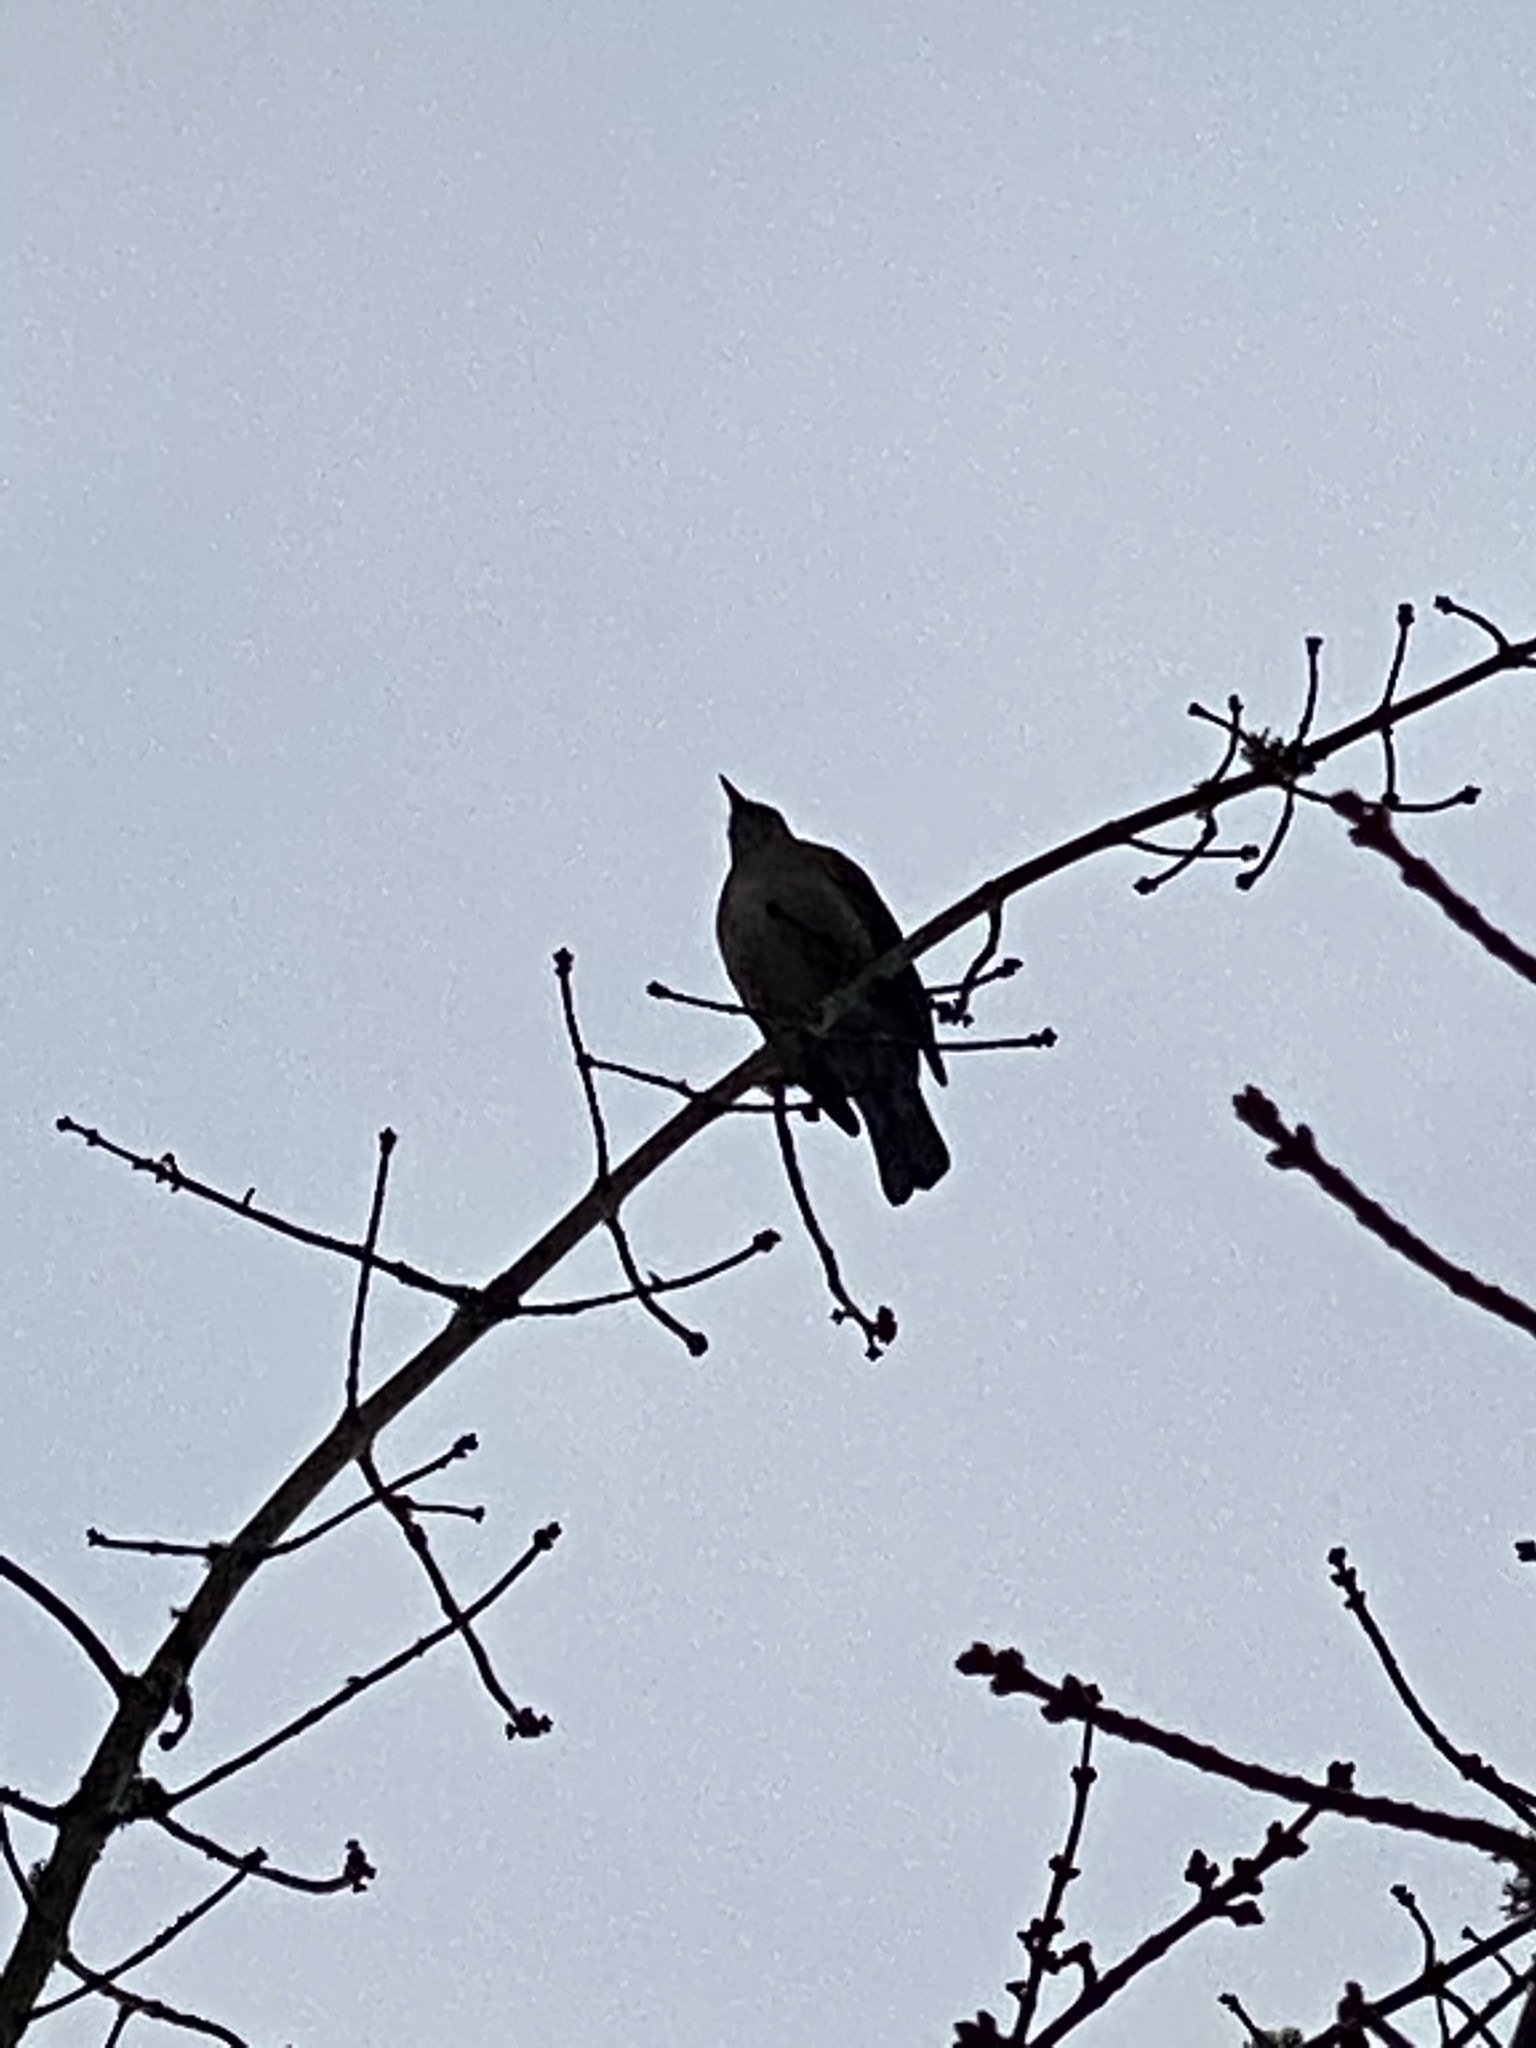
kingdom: Animalia
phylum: Chordata
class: Aves
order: Passeriformes
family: Turdidae
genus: Turdus
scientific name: Turdus migratorius
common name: American robin
